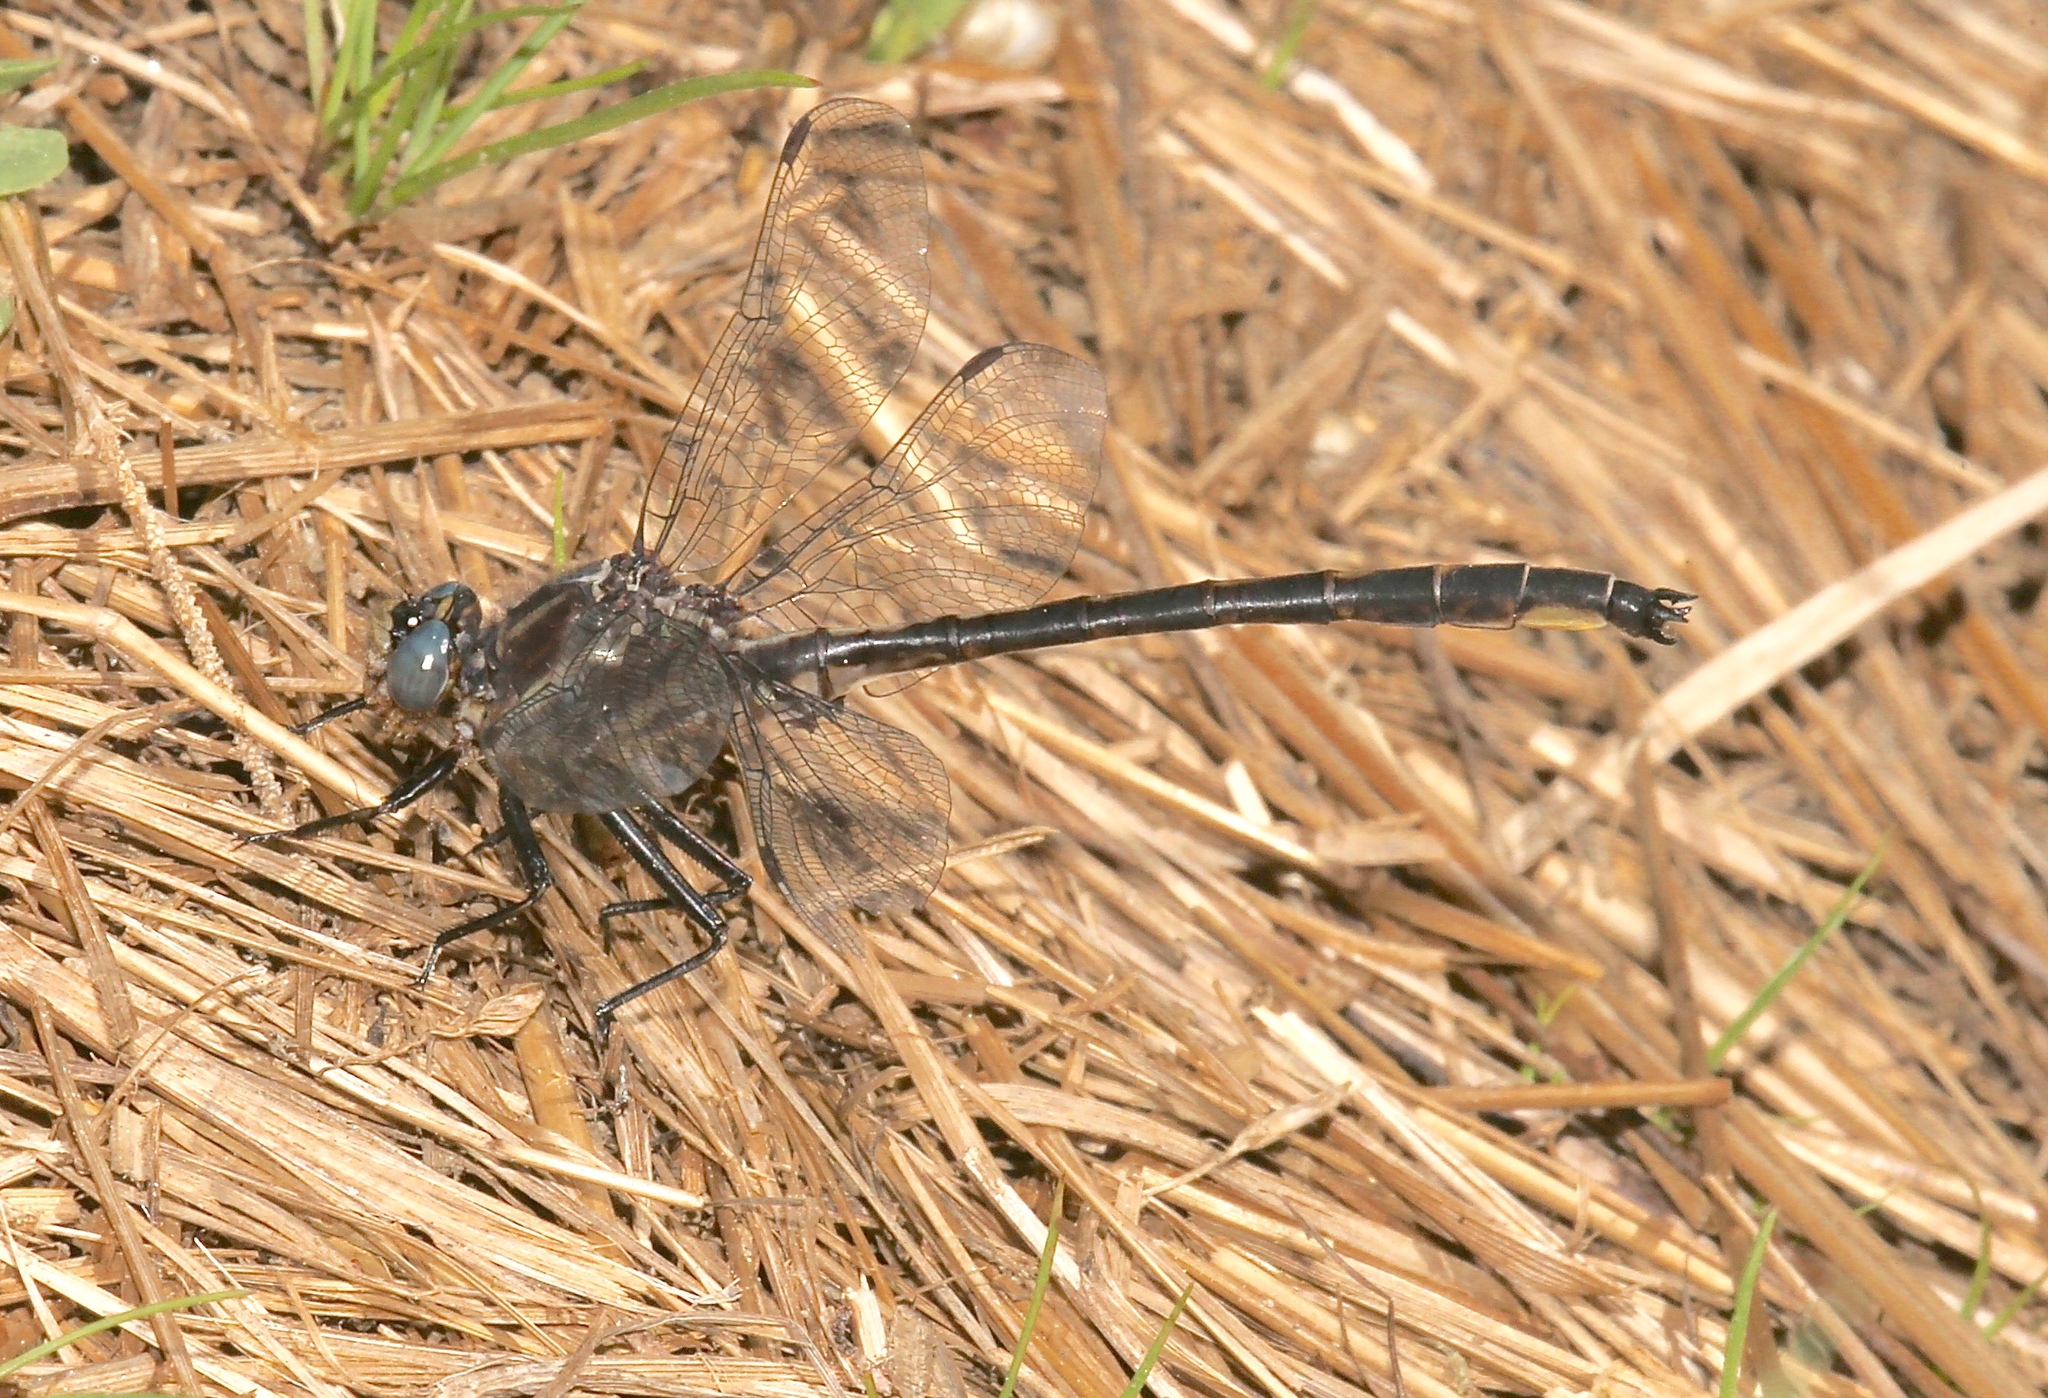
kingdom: Animalia
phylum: Arthropoda
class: Insecta
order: Odonata
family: Gomphidae
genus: Phanogomphus
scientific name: Phanogomphus spicatus
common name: Dusky clubtail
